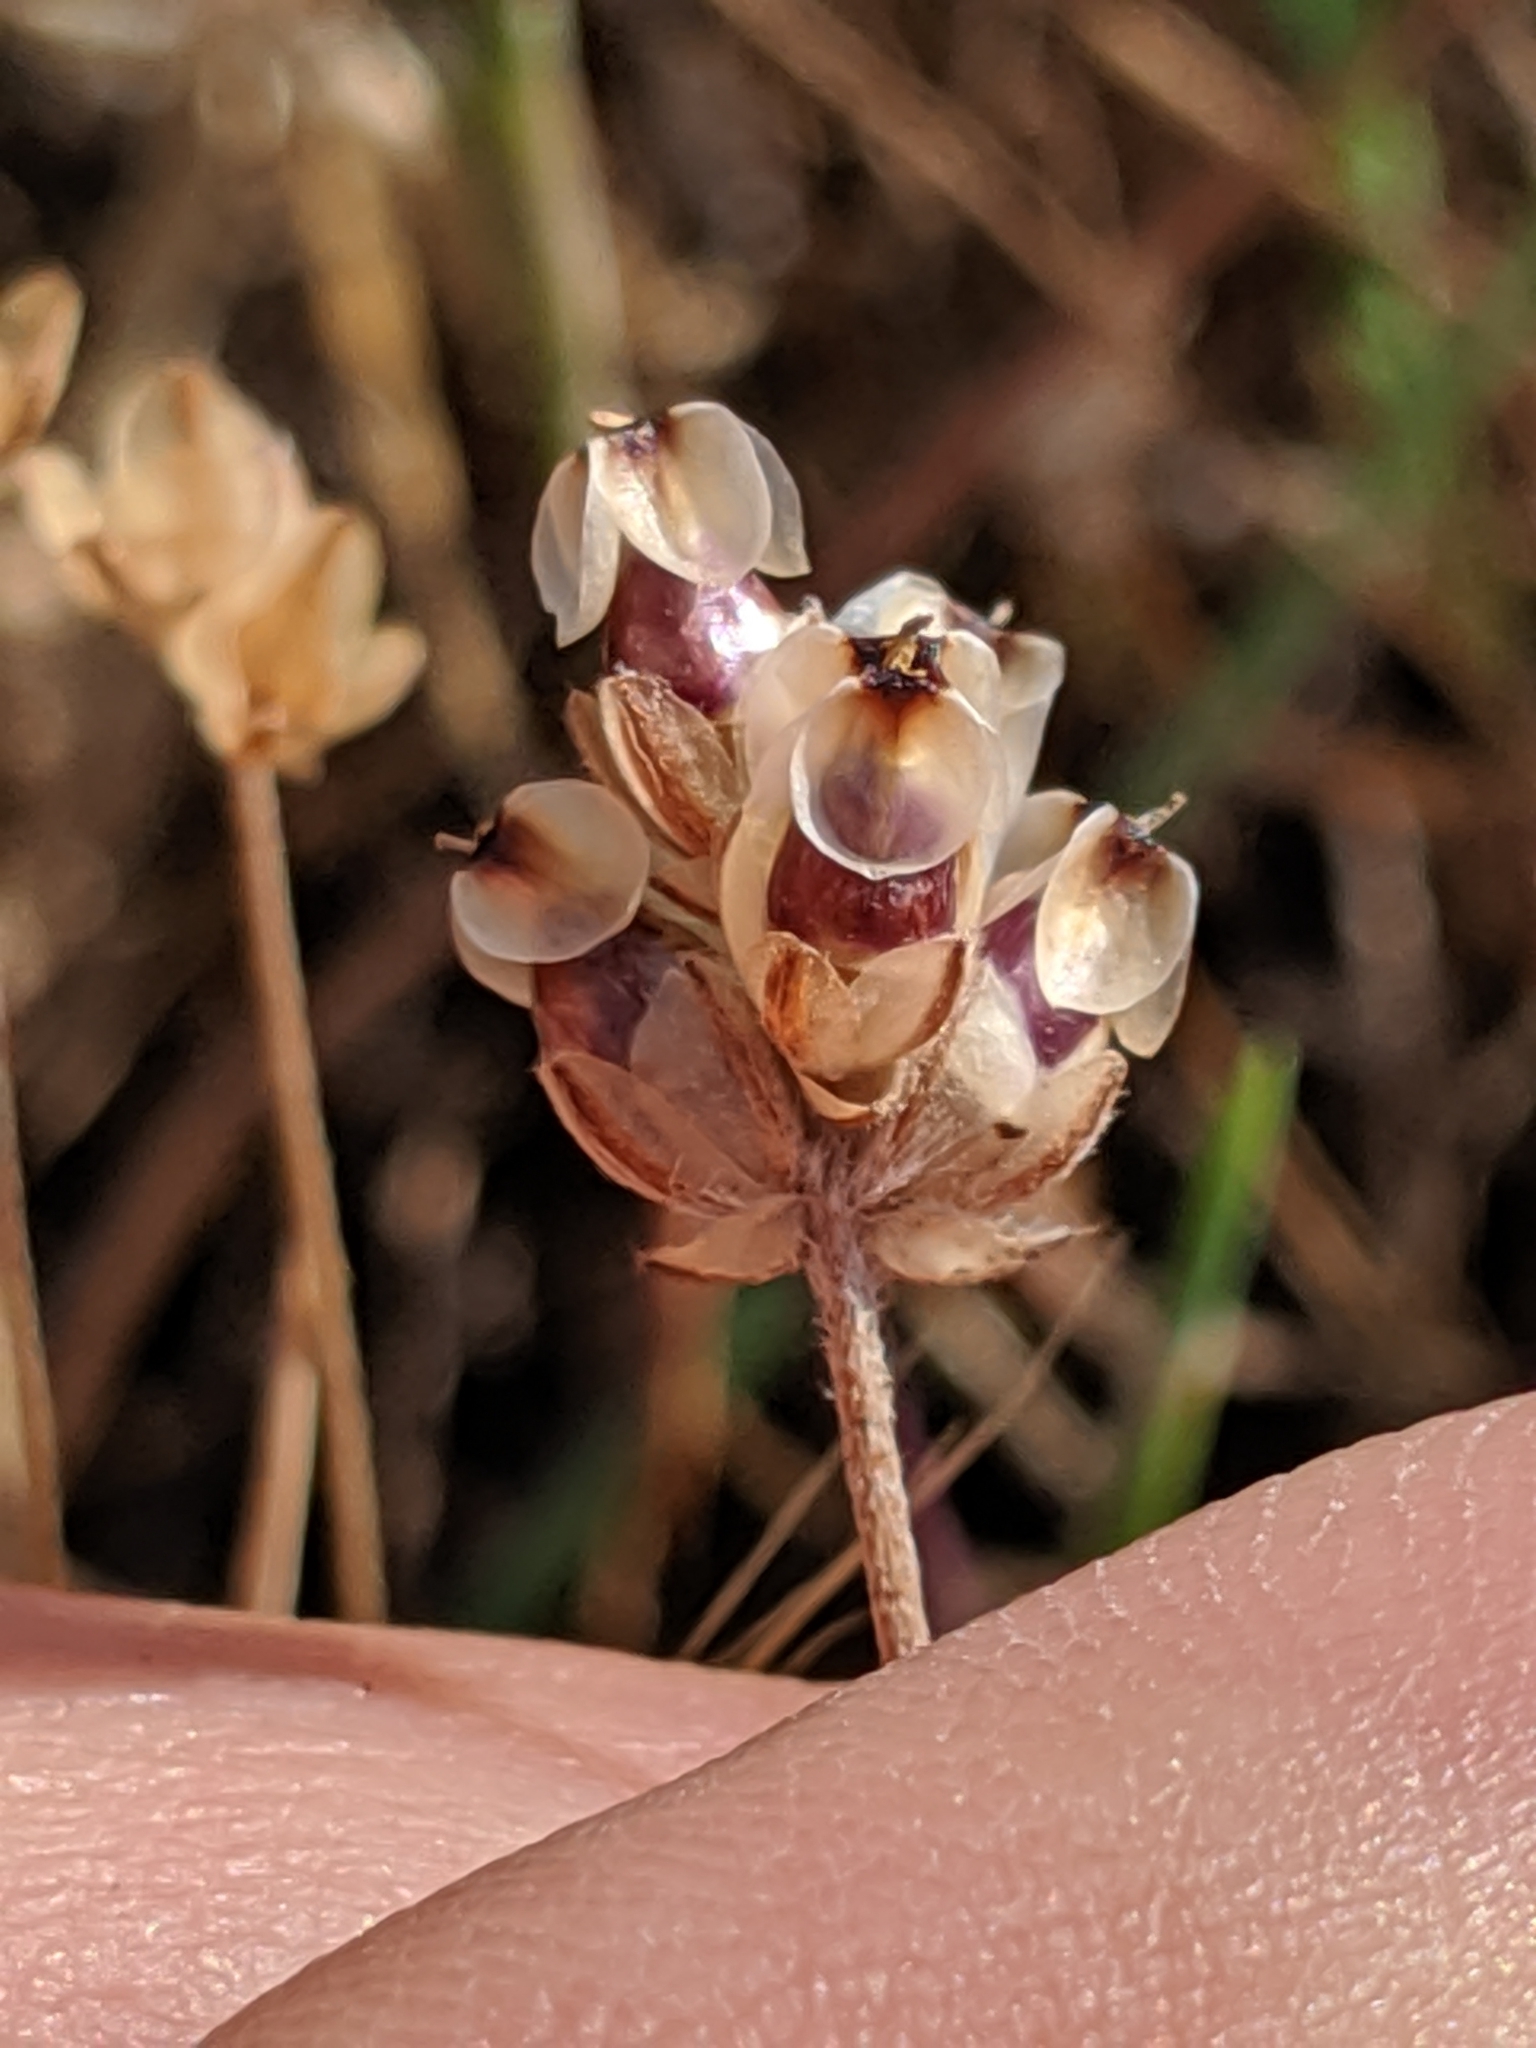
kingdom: Plantae
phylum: Tracheophyta
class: Magnoliopsida
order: Lamiales
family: Plantaginaceae
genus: Plantago
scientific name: Plantago erecta
